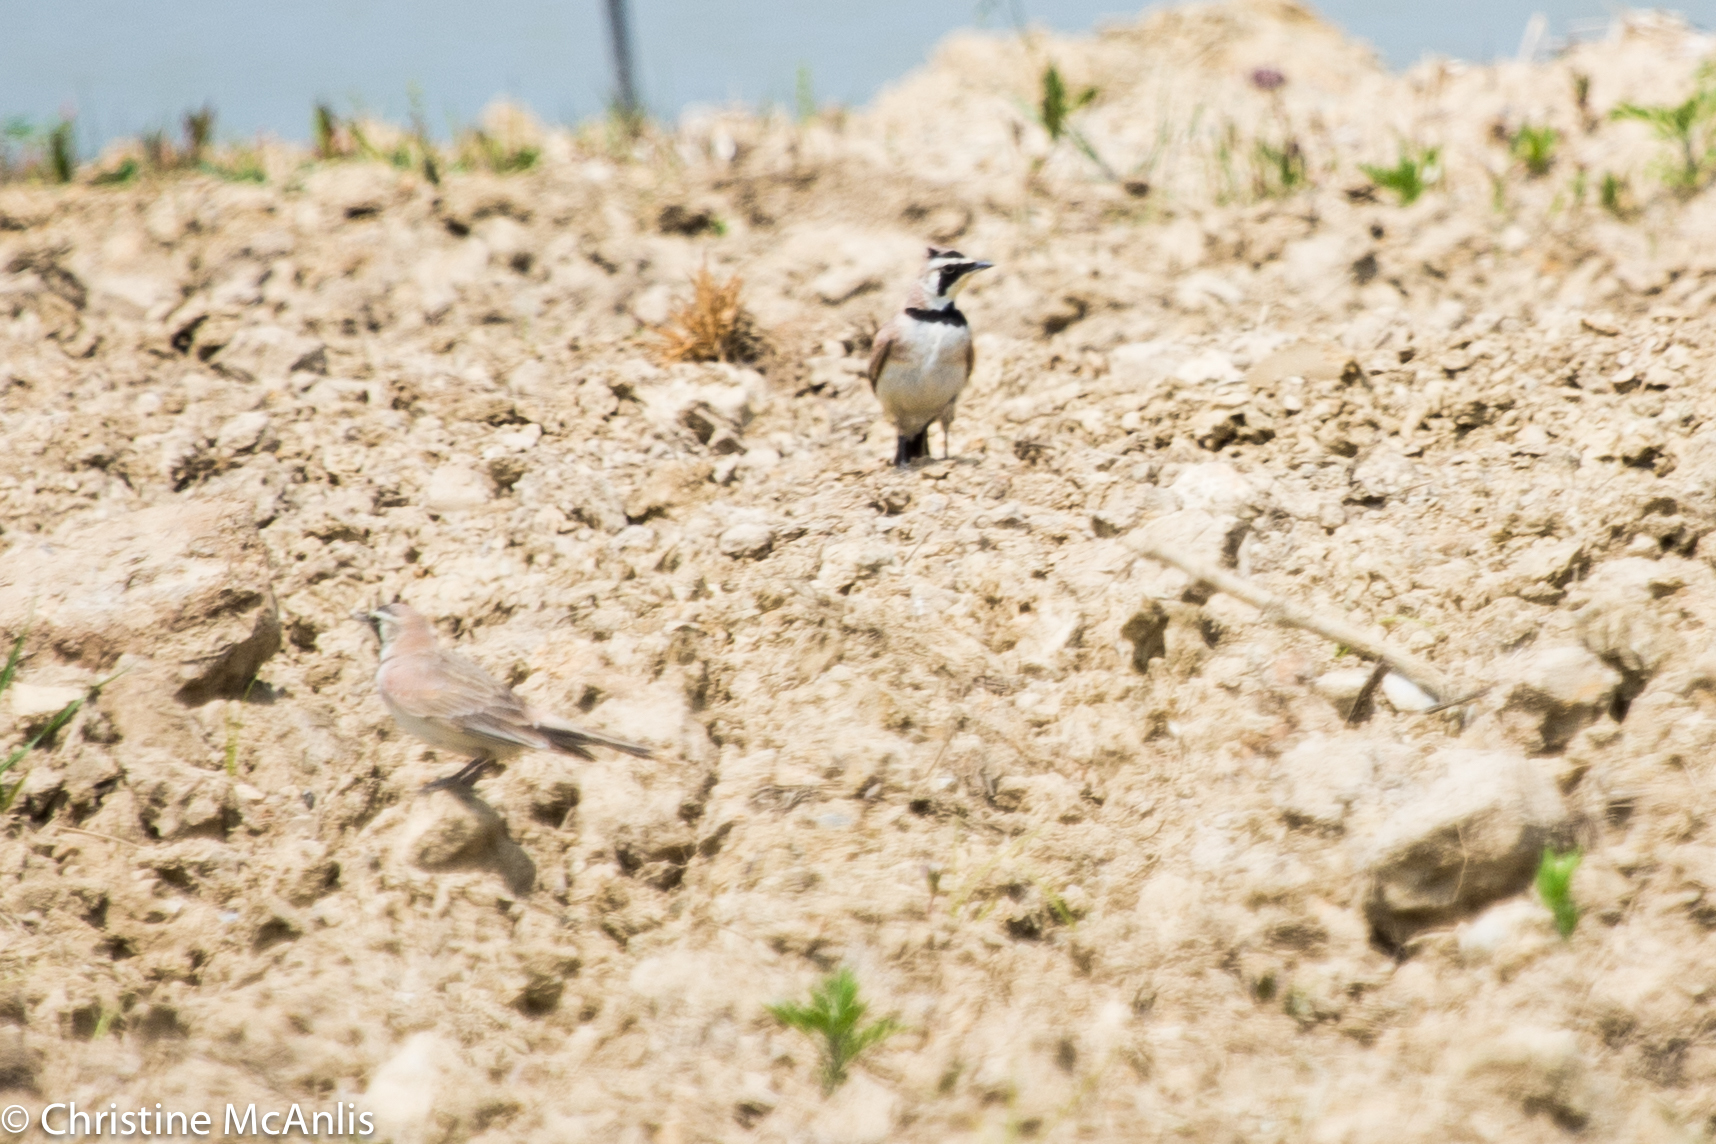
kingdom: Animalia
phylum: Chordata
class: Aves
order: Passeriformes
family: Alaudidae
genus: Eremophila
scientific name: Eremophila alpestris
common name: Horned lark
